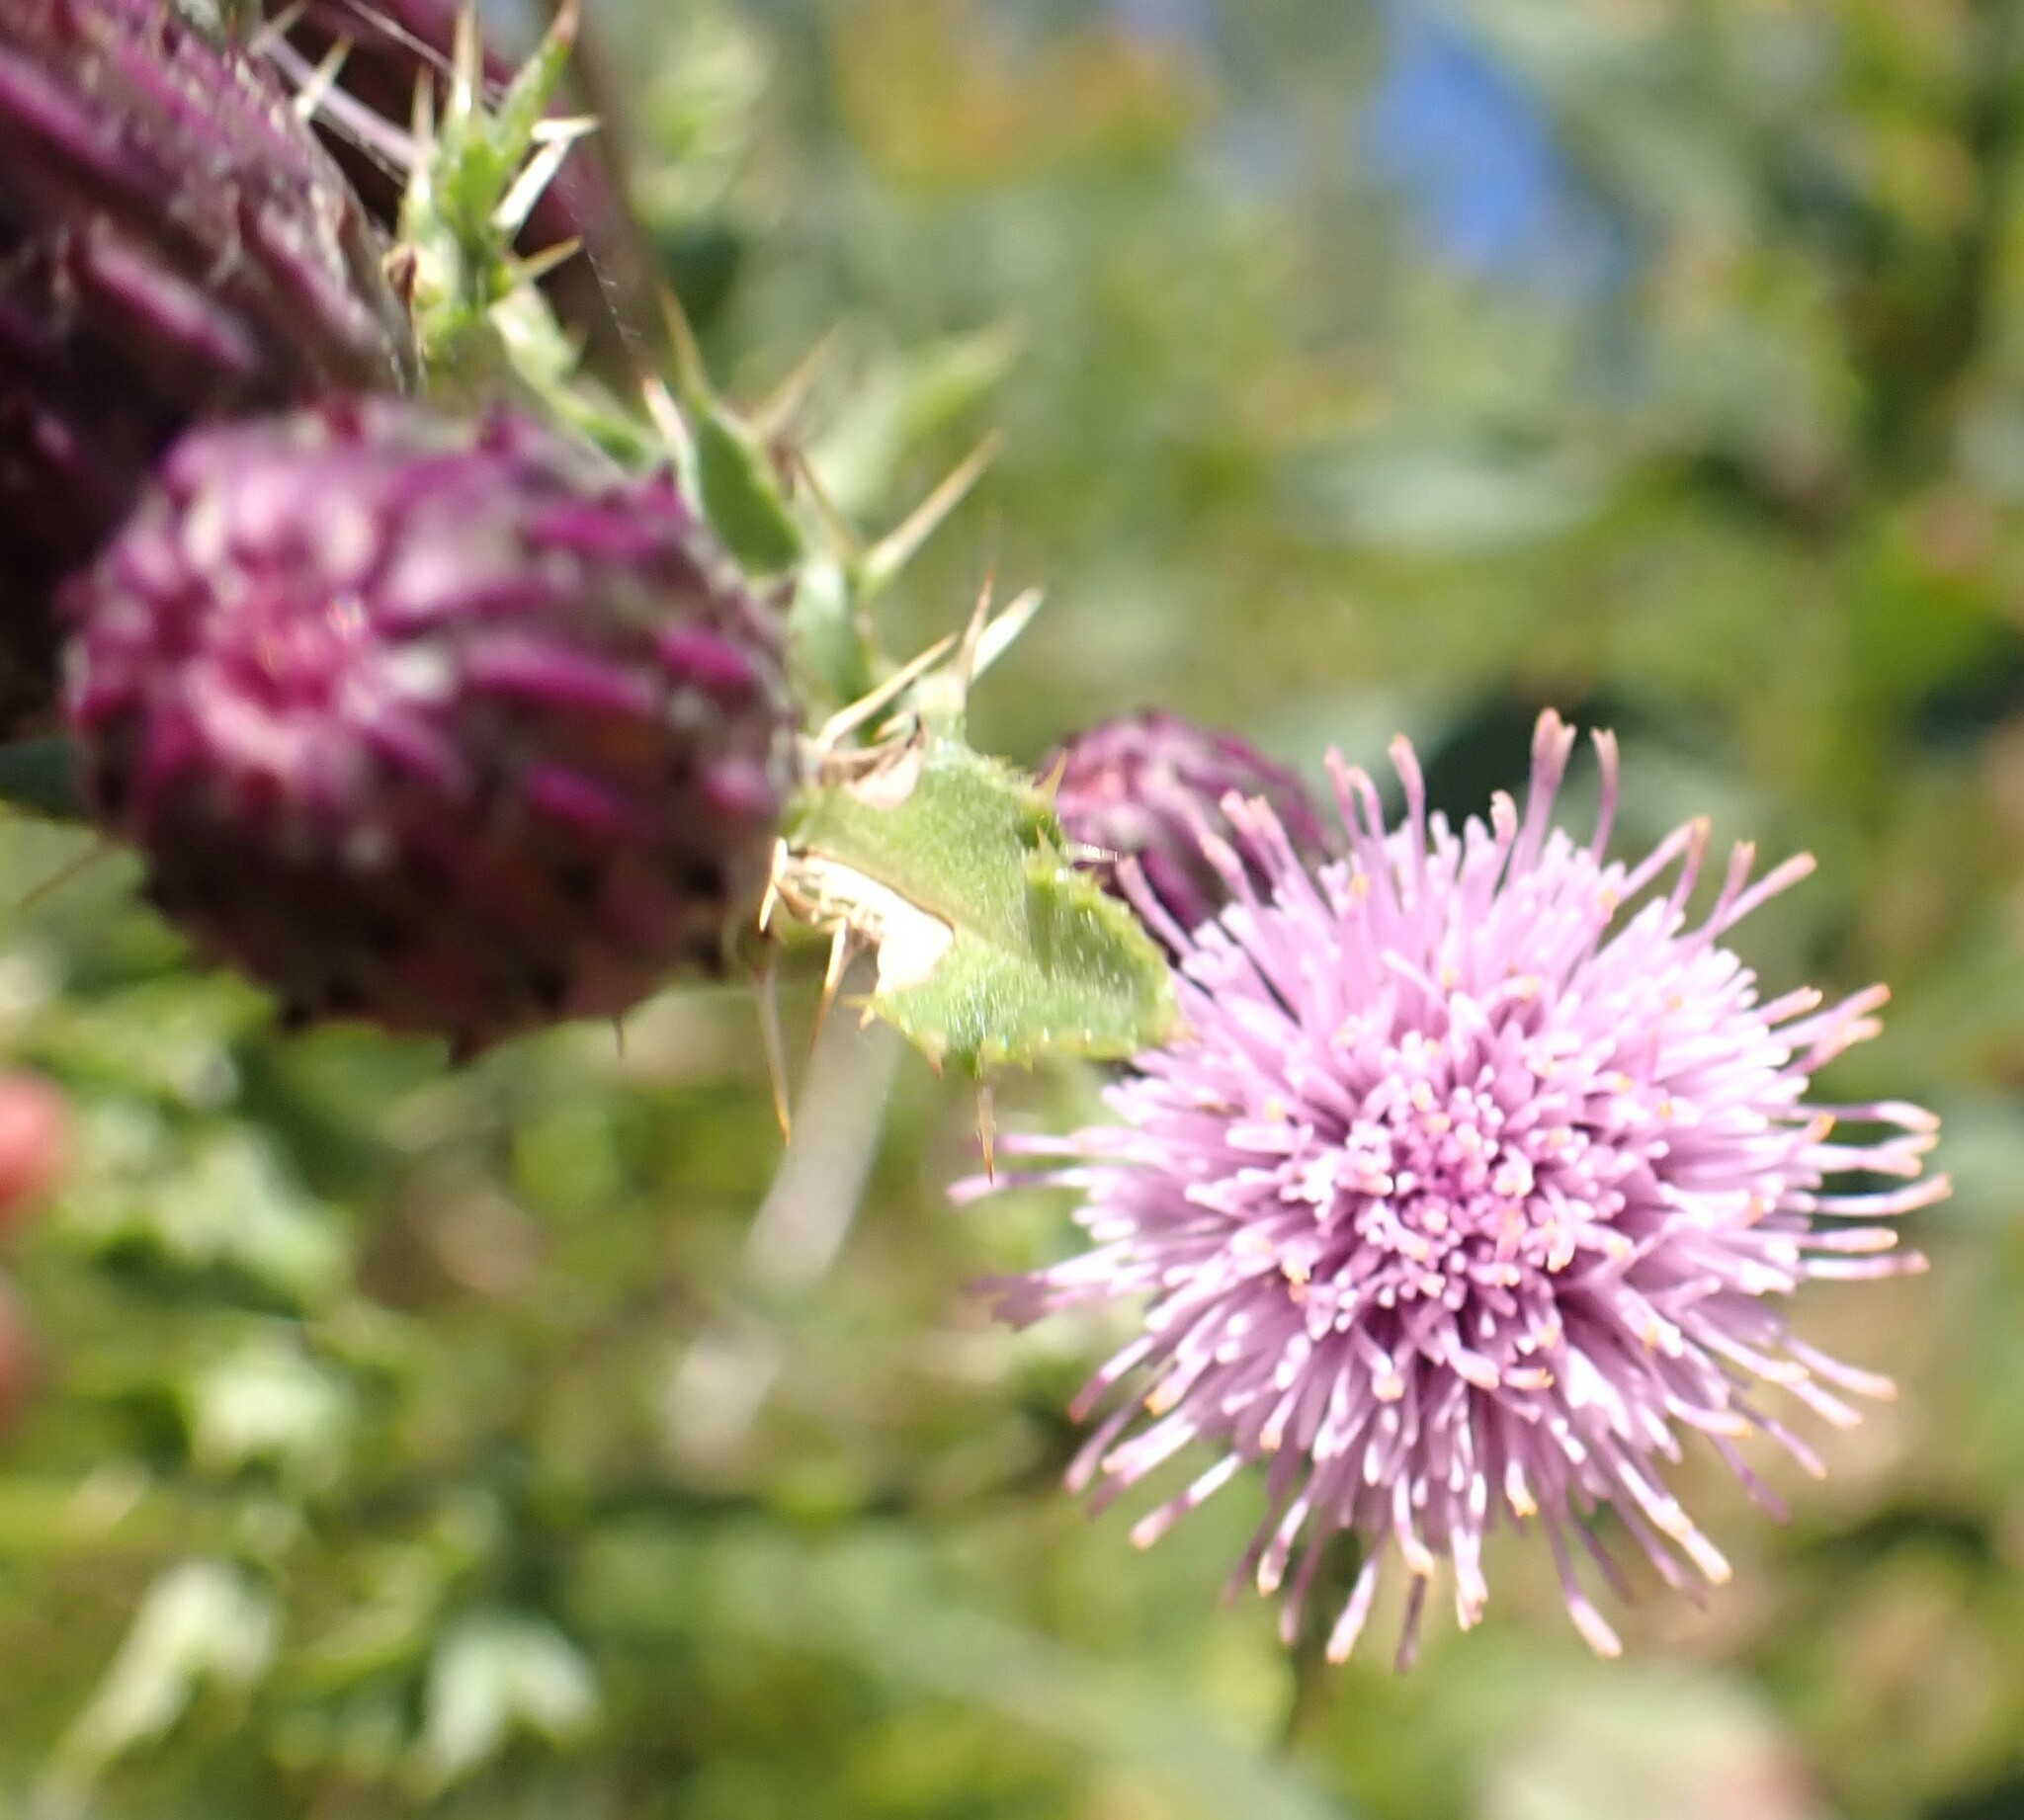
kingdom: Plantae
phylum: Tracheophyta
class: Magnoliopsida
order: Asterales
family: Asteraceae
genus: Cirsium
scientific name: Cirsium arvense
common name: Creeping thistle
